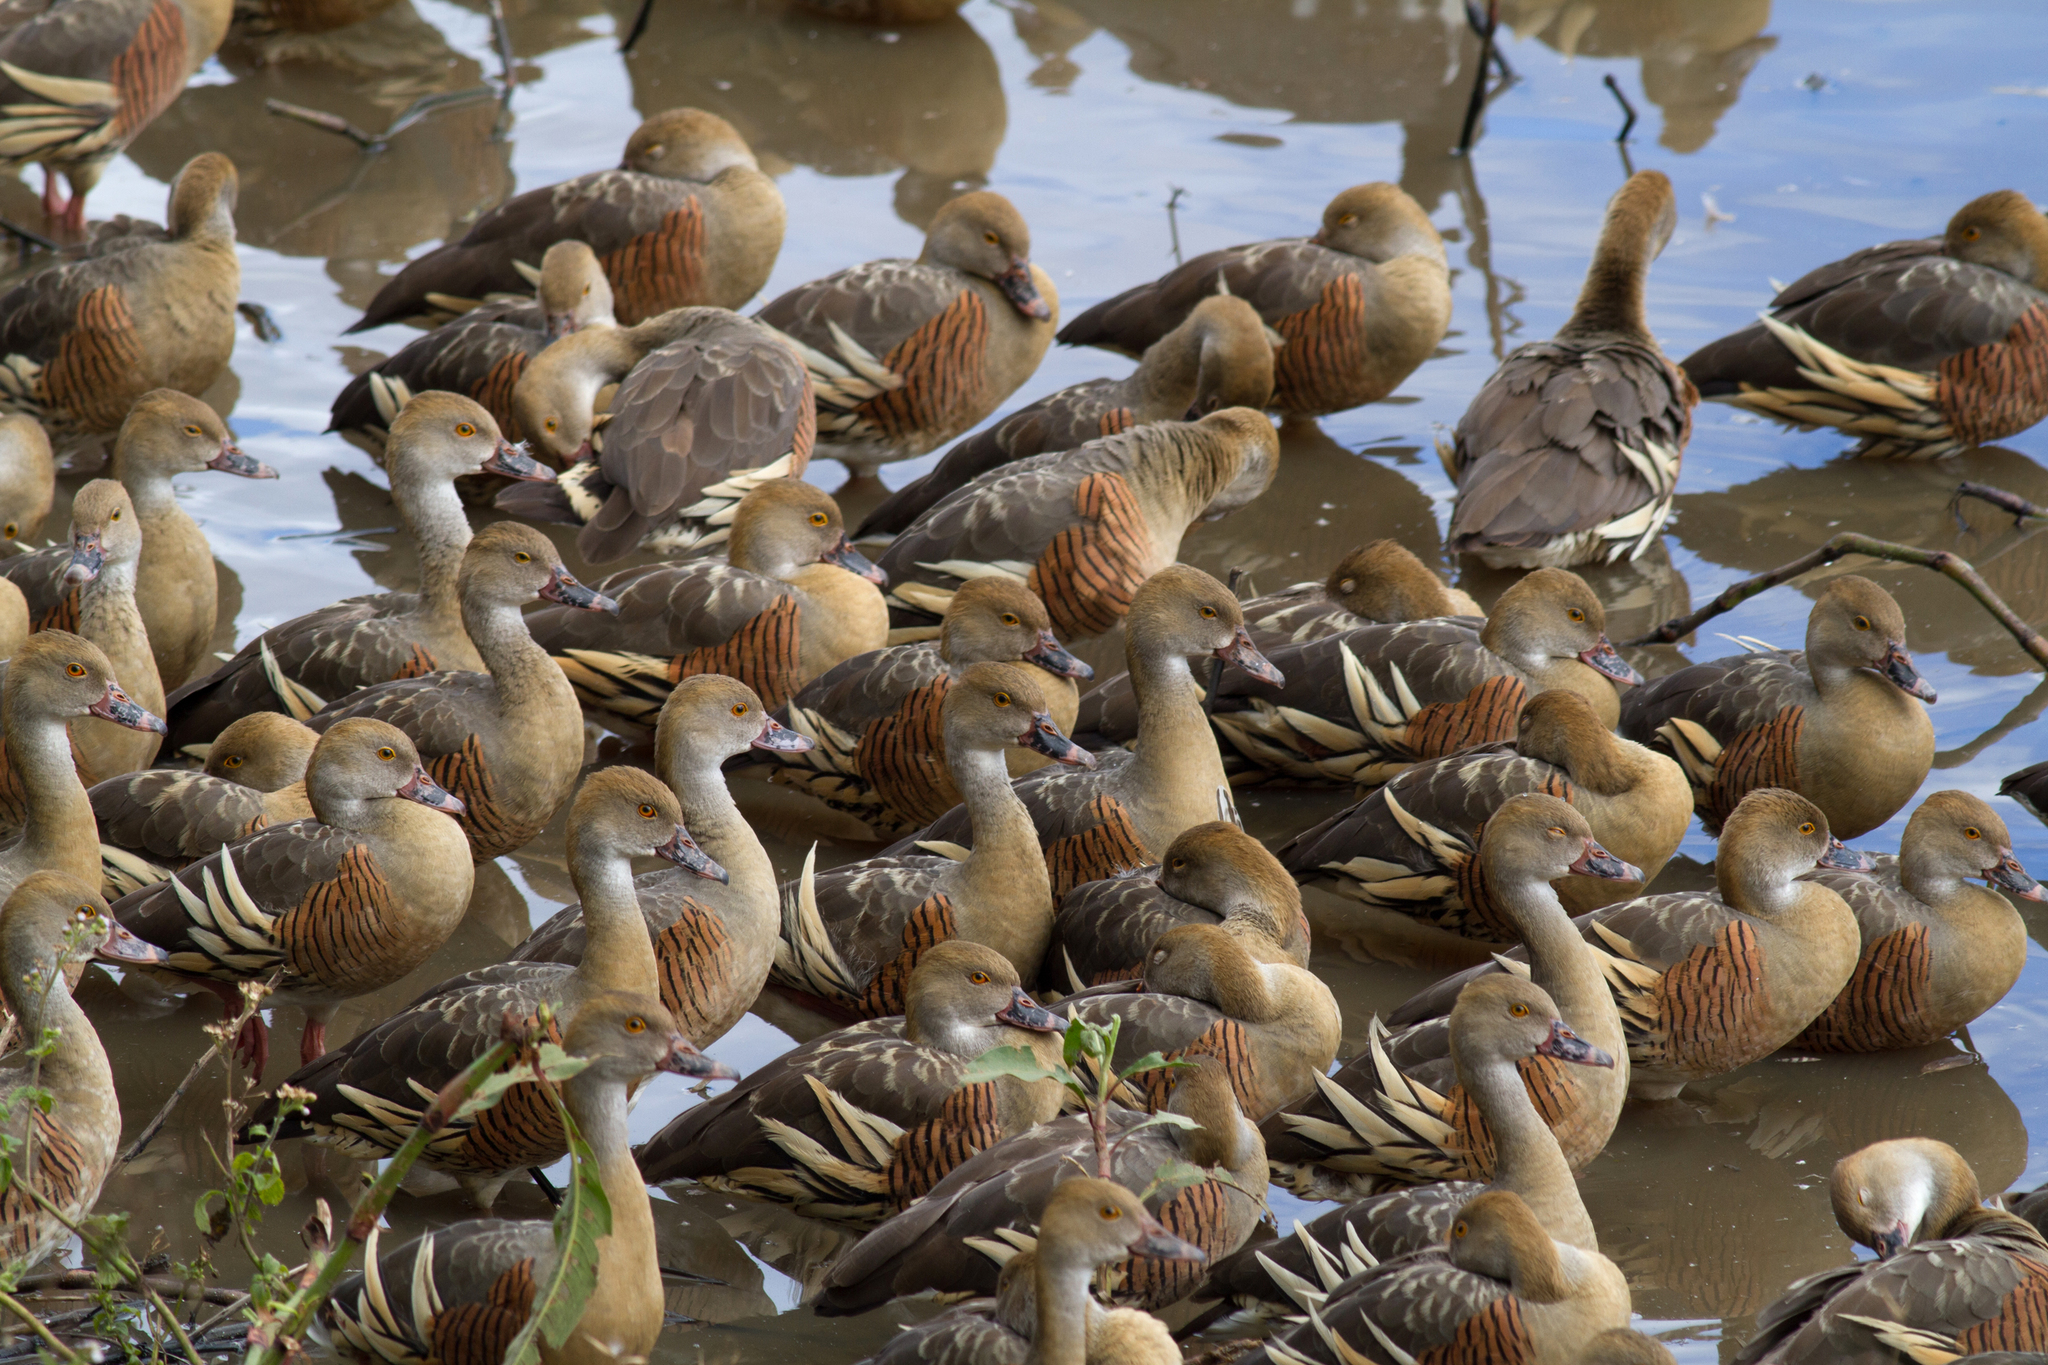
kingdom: Animalia
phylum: Chordata
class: Aves
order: Anseriformes
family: Anatidae
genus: Dendrocygna
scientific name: Dendrocygna eytoni
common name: Plumed whistling-duck
